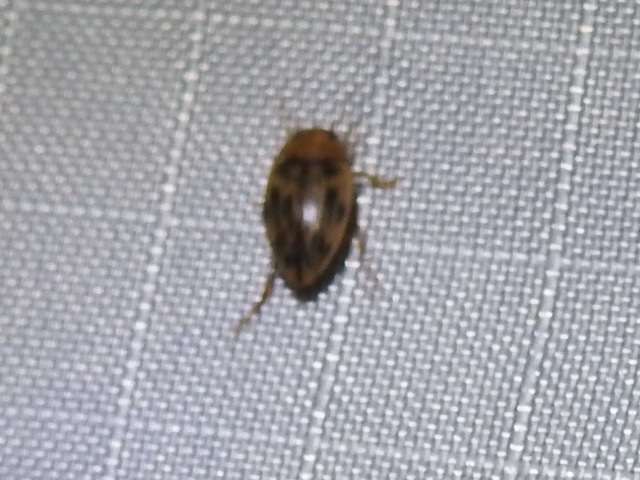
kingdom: Animalia
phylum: Arthropoda
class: Insecta
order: Coleoptera
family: Dytiscidae
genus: Neoporus
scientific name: Neoporus dimidiatus
